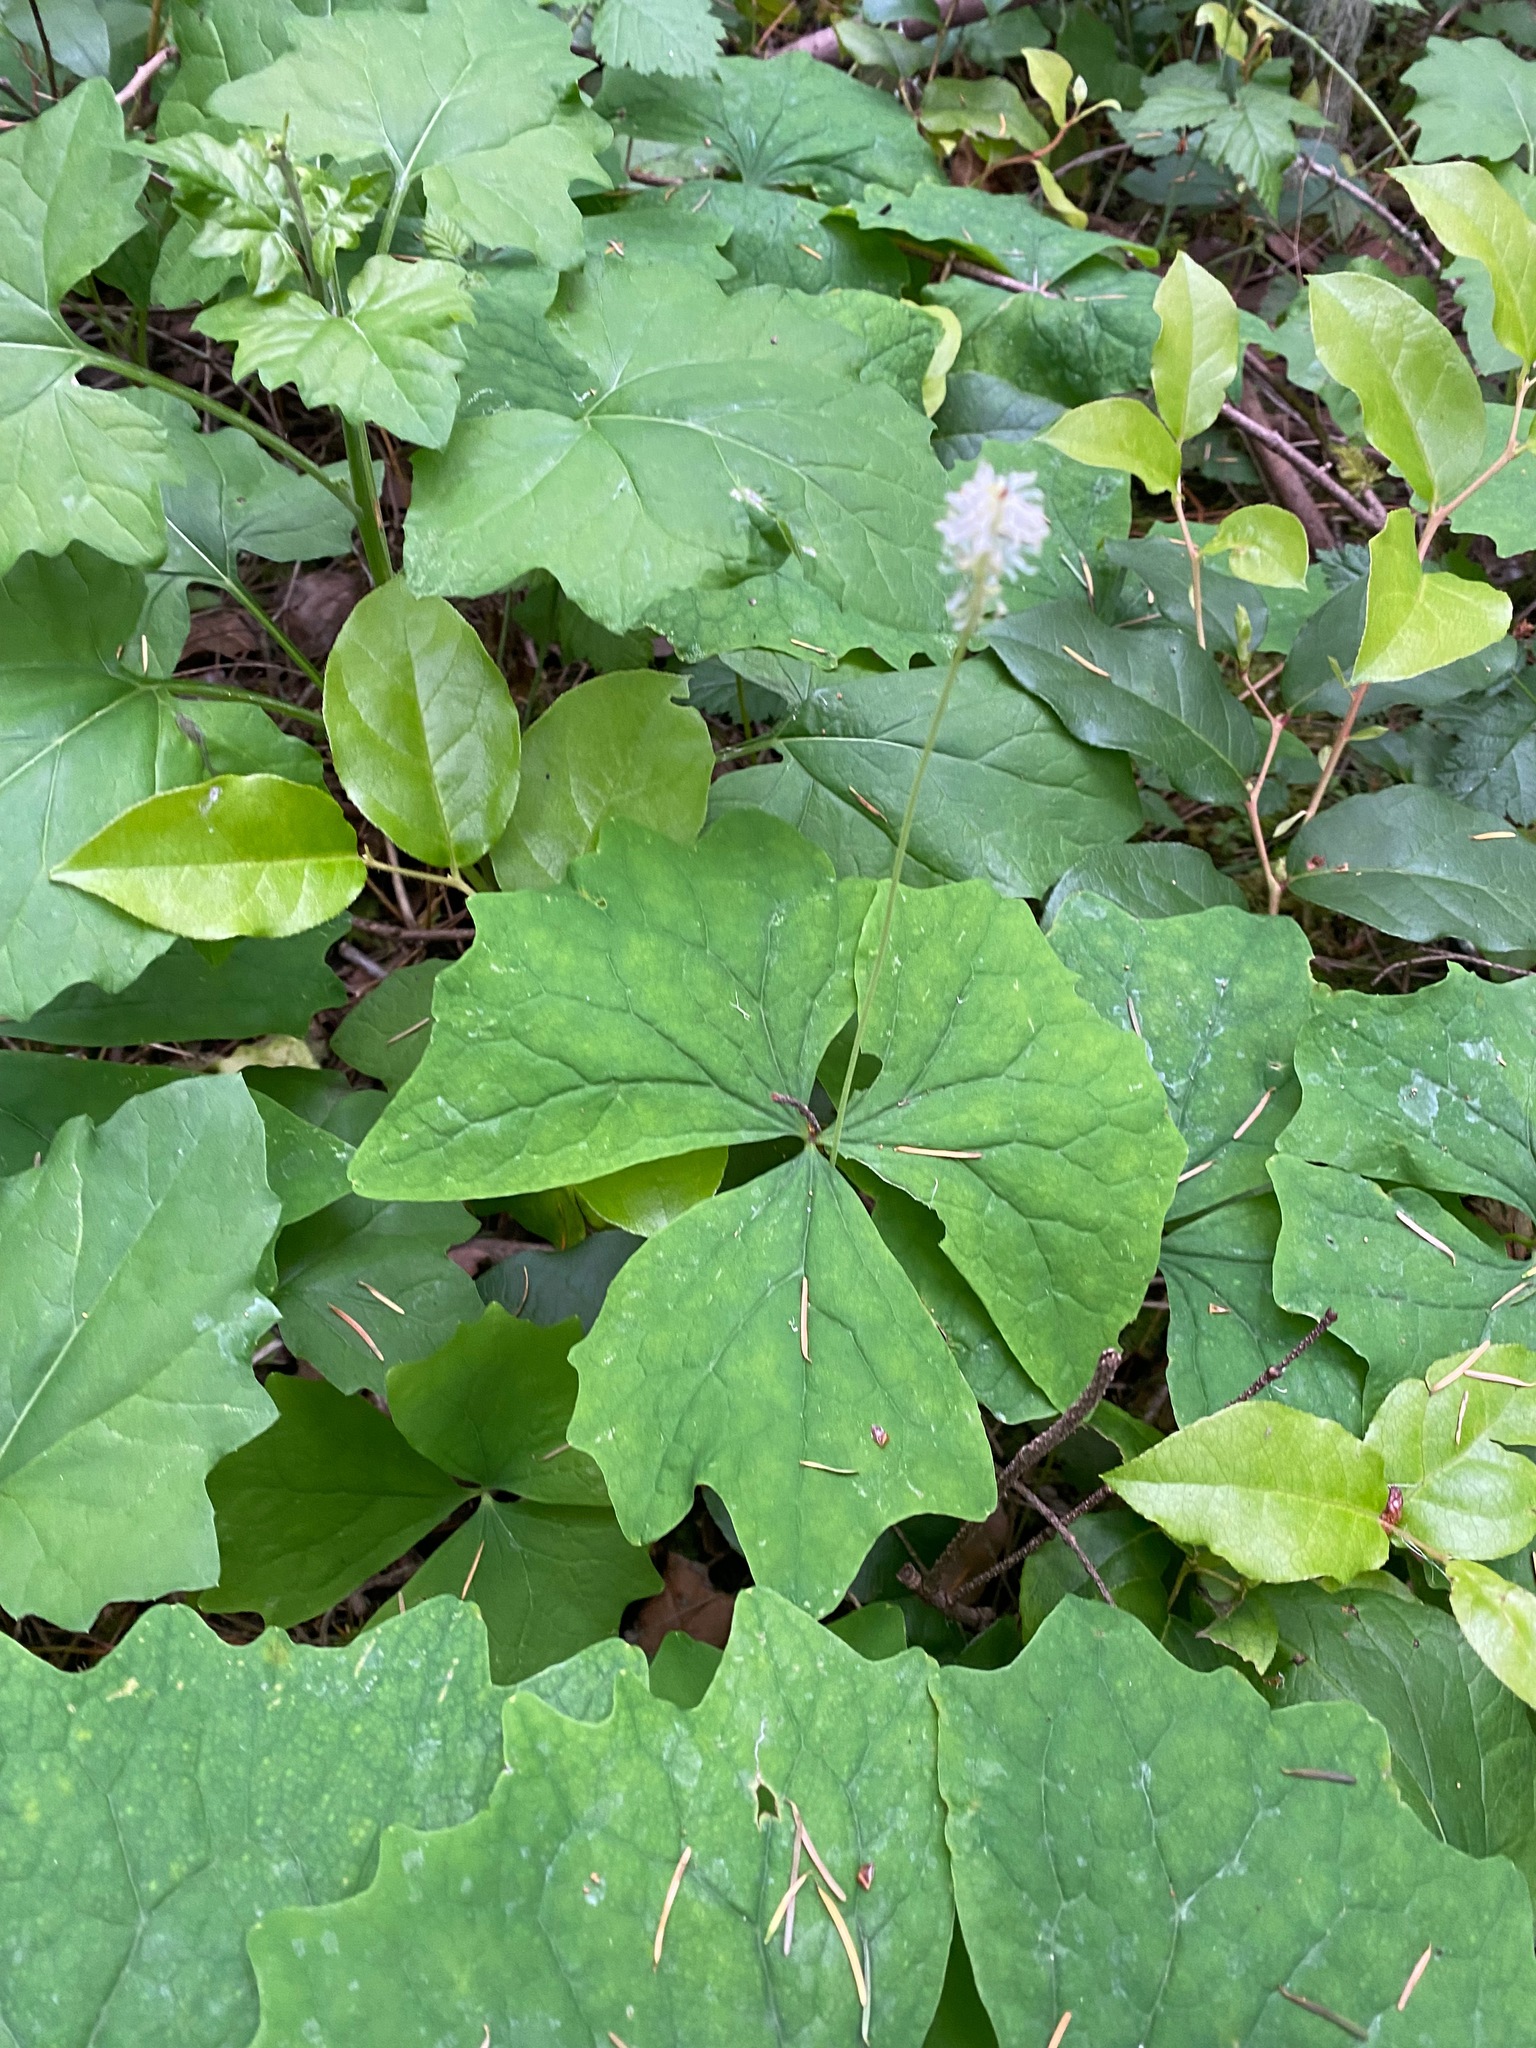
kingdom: Plantae
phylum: Tracheophyta
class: Magnoliopsida
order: Ranunculales
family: Berberidaceae
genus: Achlys
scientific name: Achlys triphylla
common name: Vanilla-leaf
